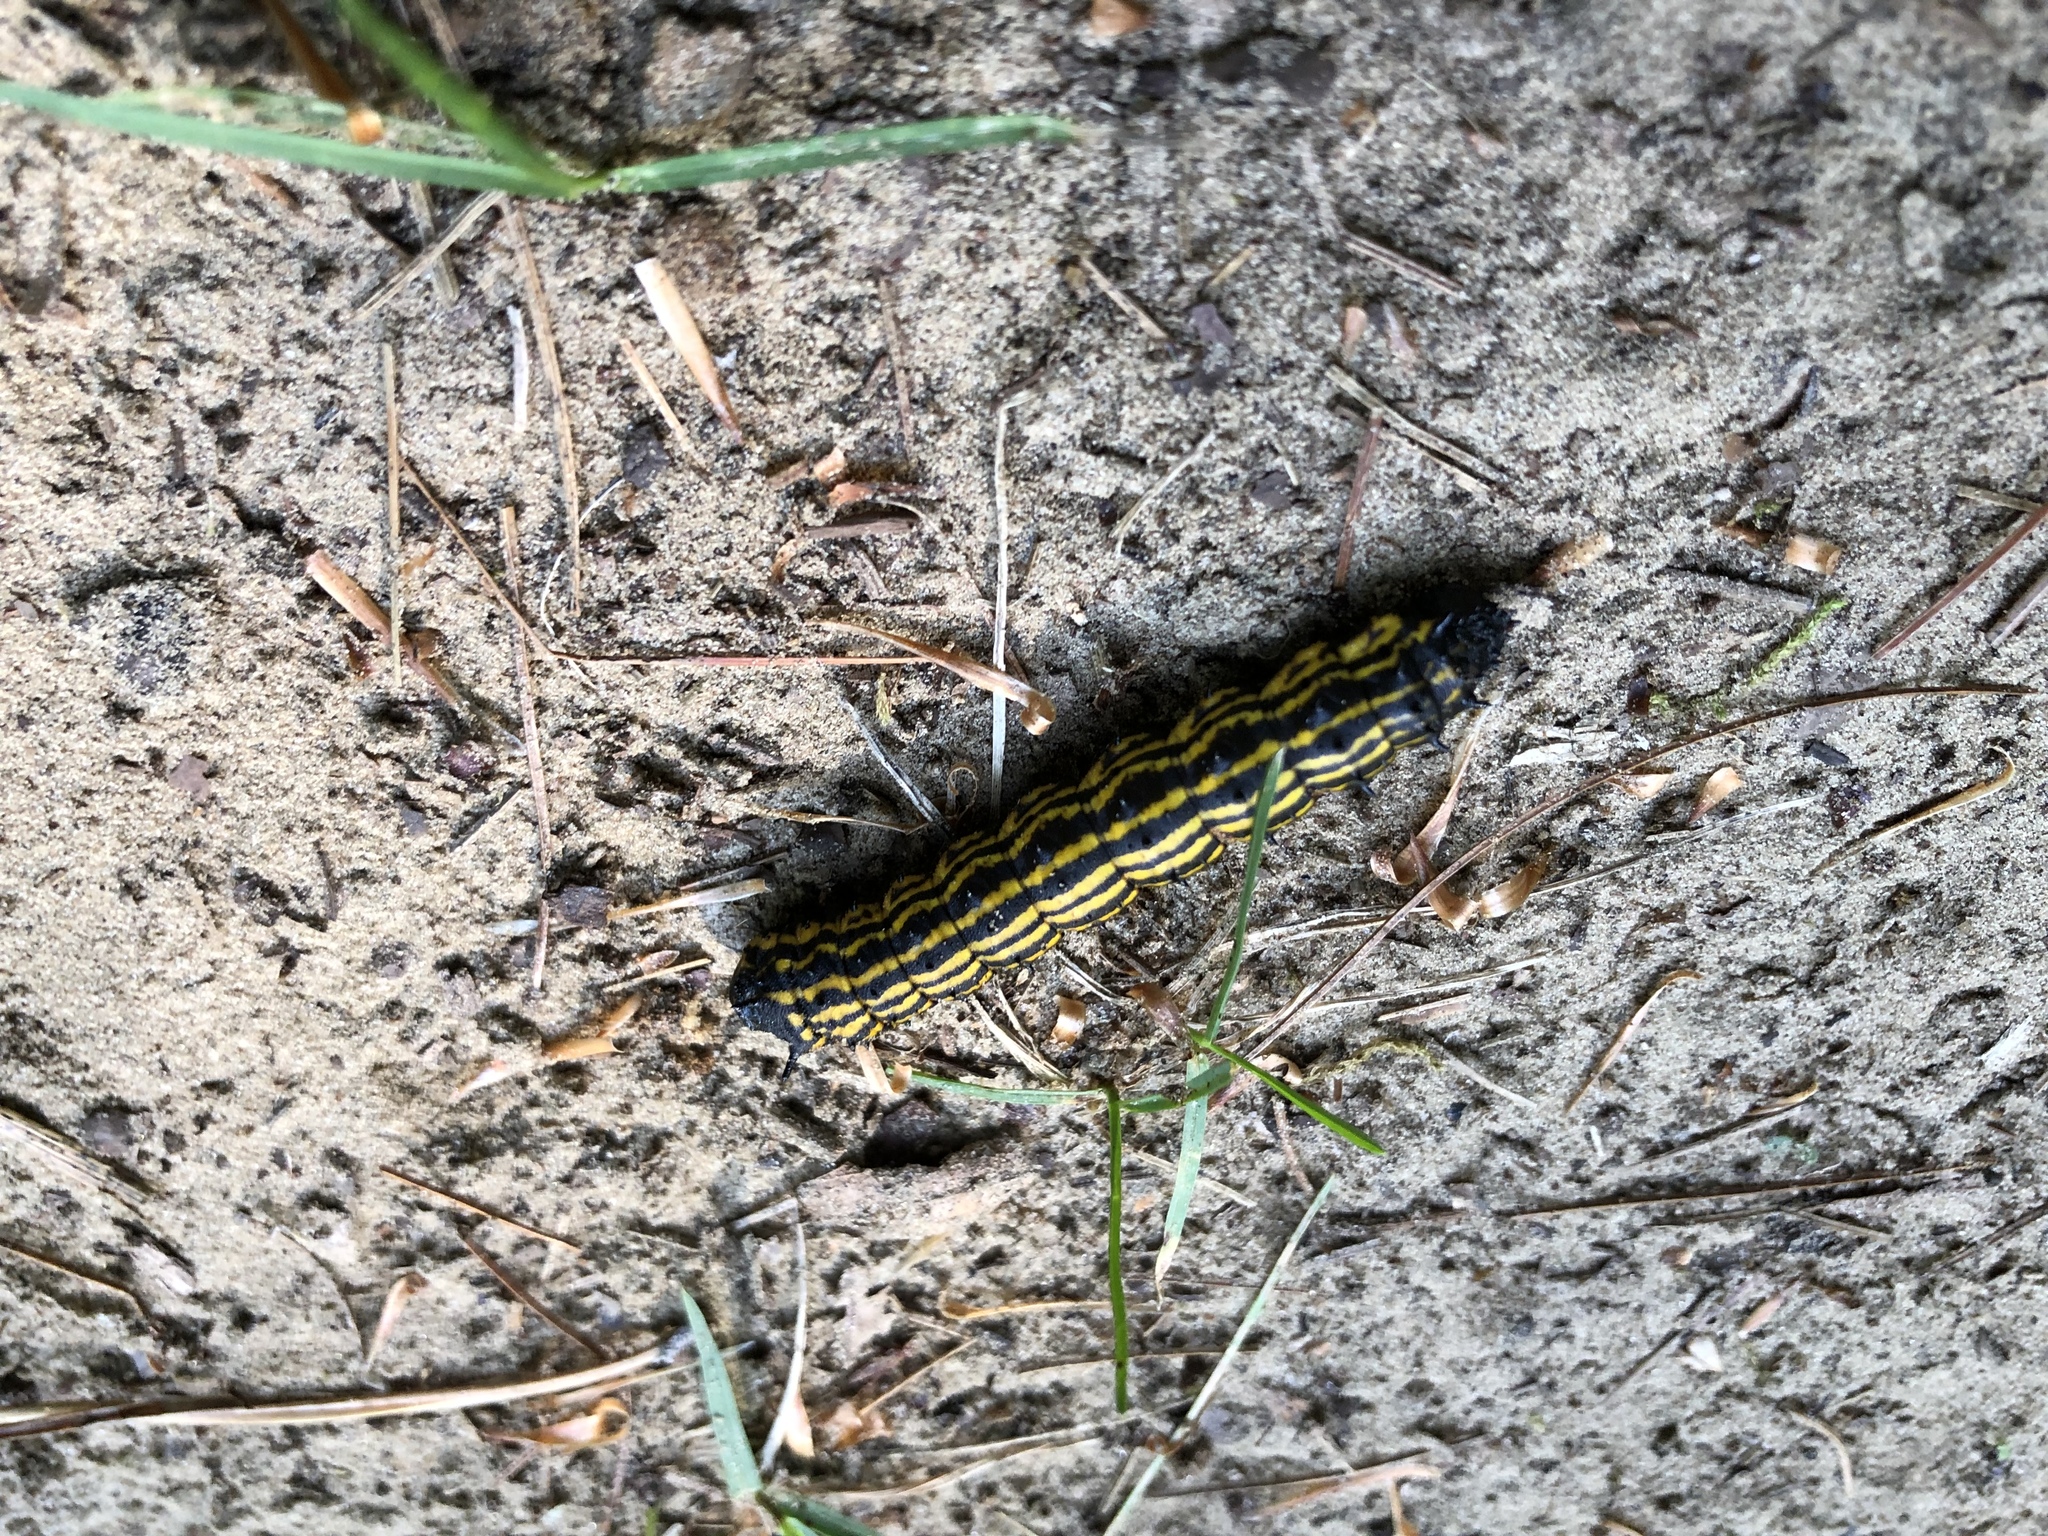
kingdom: Animalia
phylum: Arthropoda
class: Insecta
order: Lepidoptera
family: Saturniidae
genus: Anisota
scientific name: Anisota finlaysoni
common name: Hornless oakworm moth
